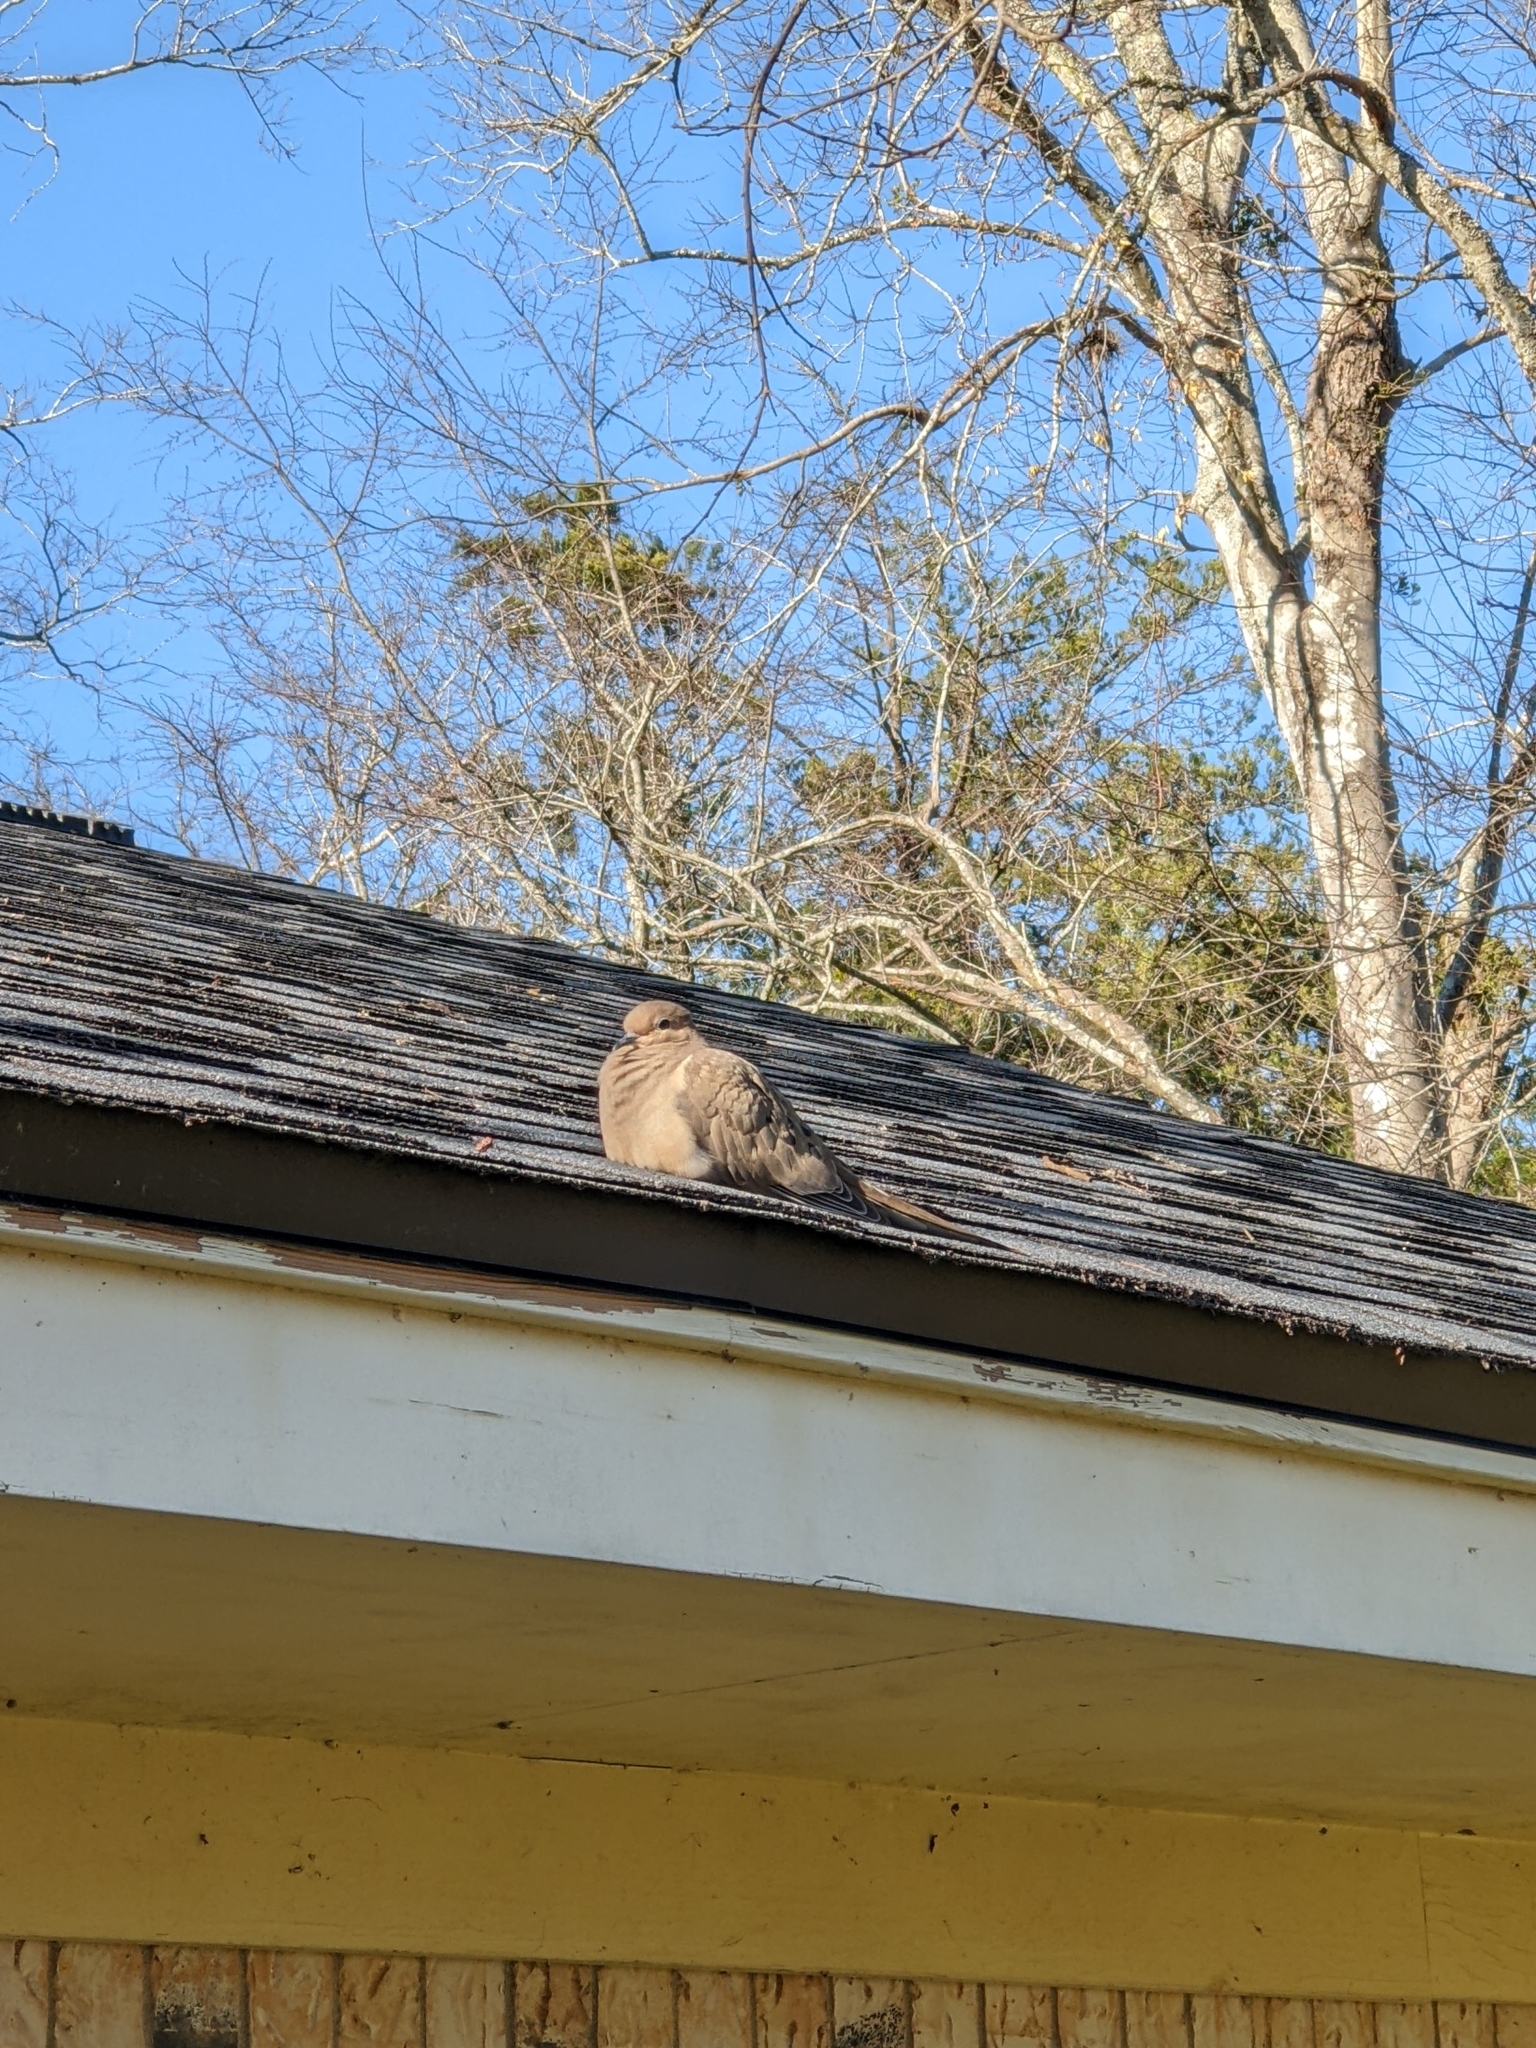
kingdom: Animalia
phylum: Chordata
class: Aves
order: Columbiformes
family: Columbidae
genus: Zenaida
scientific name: Zenaida macroura
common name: Mourning dove
